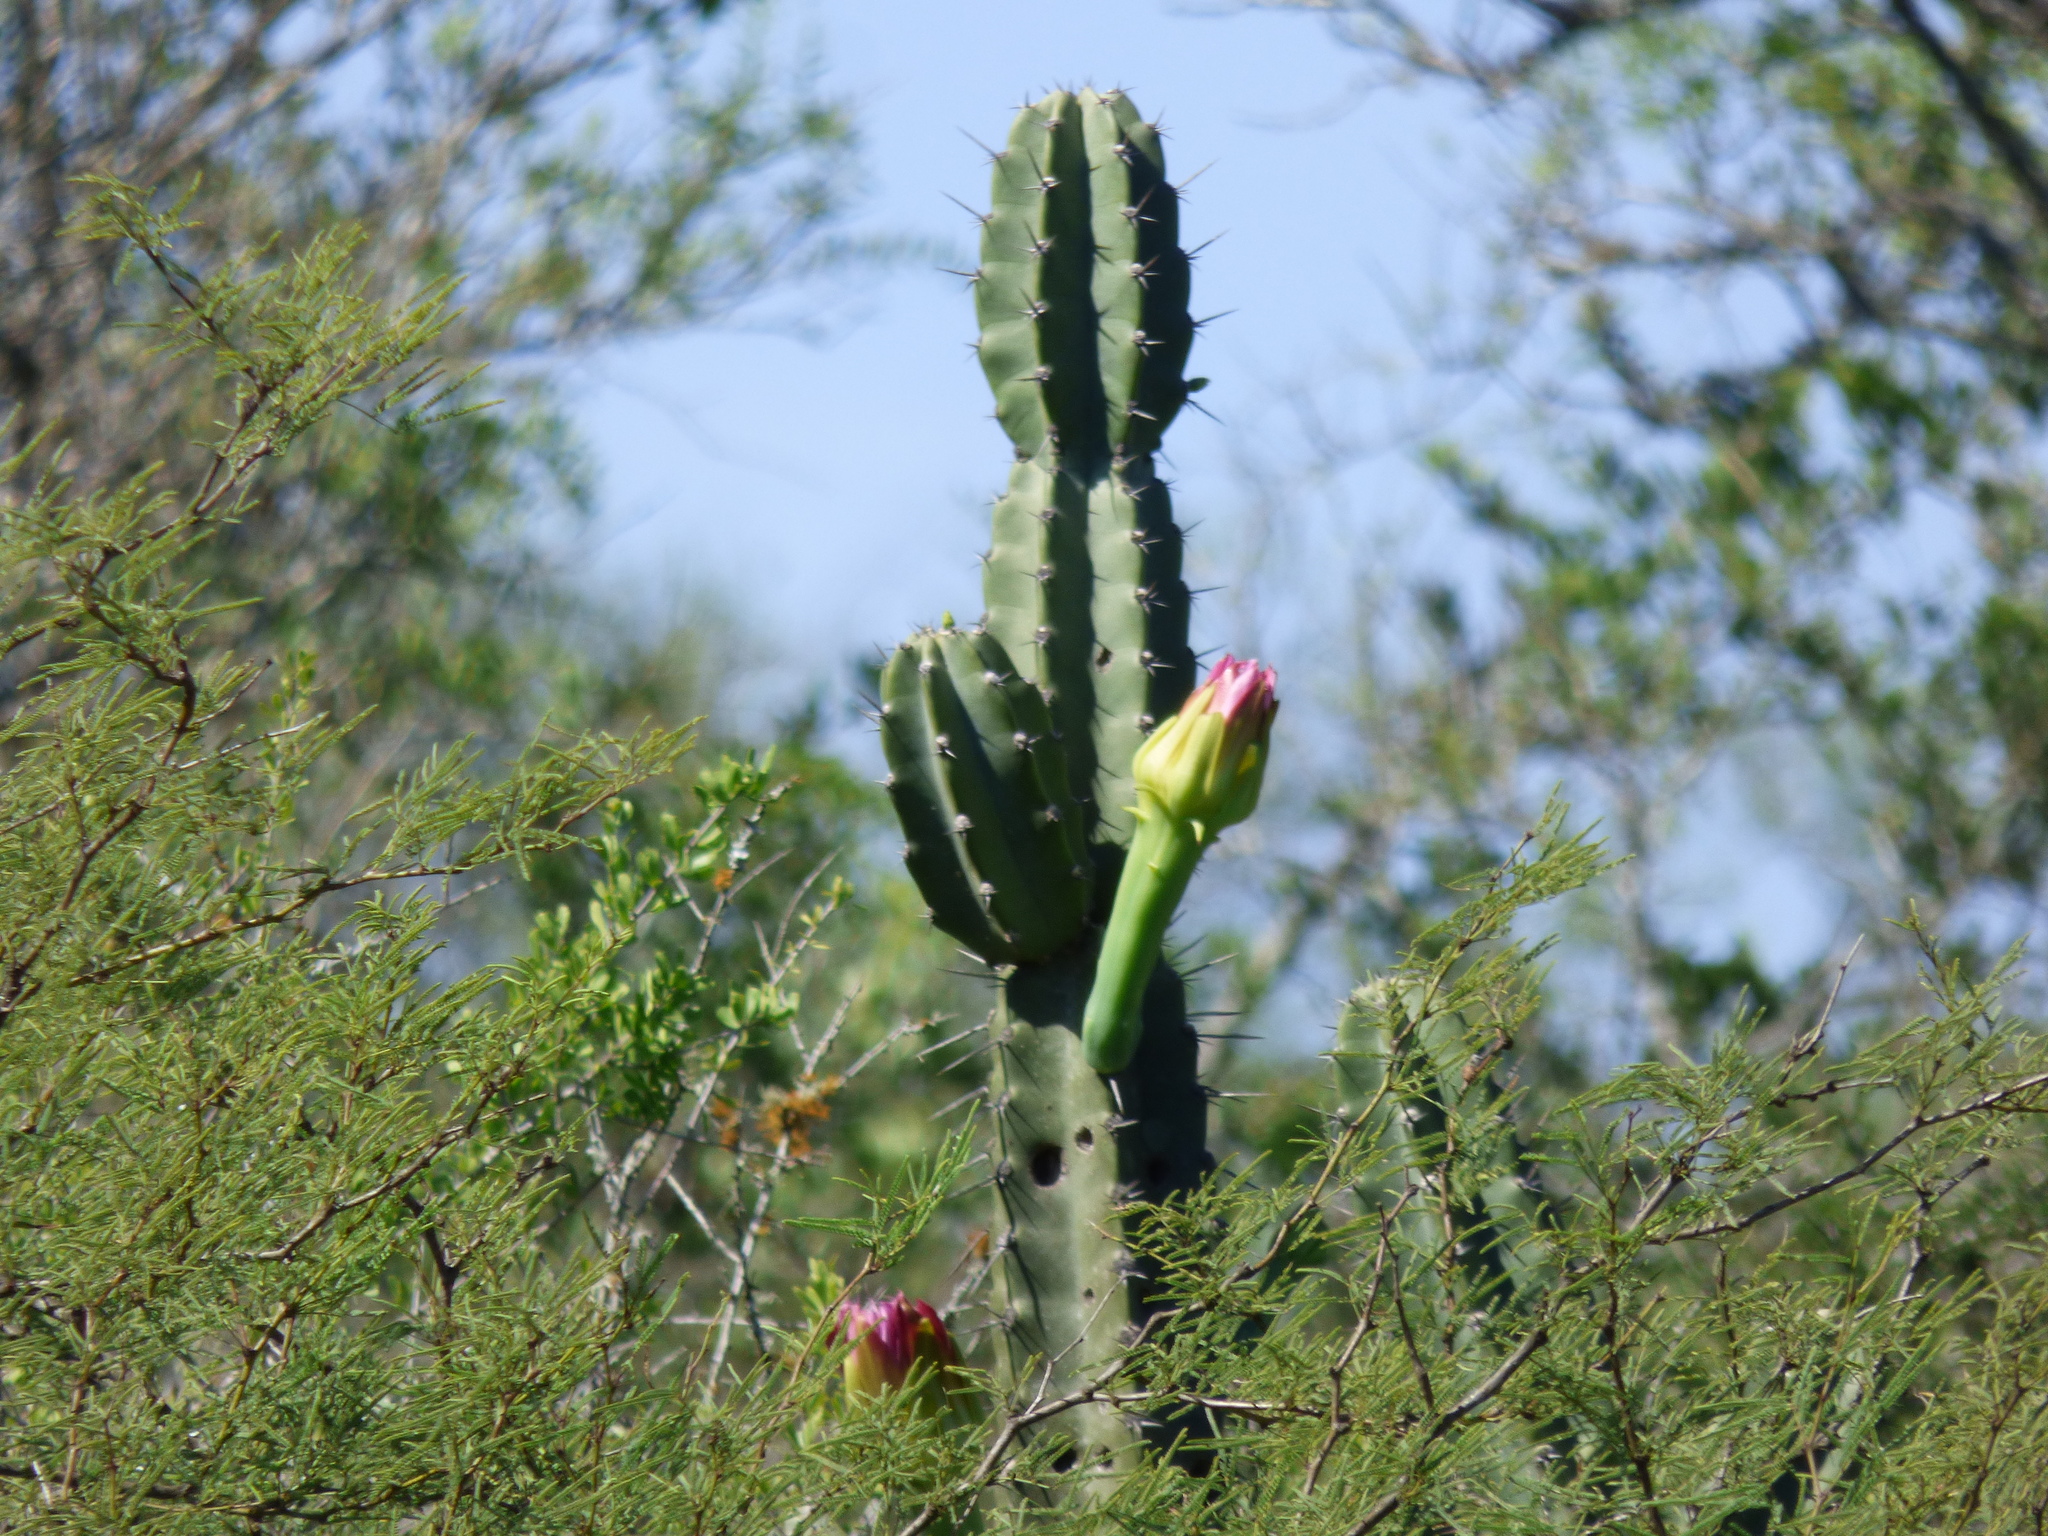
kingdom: Plantae
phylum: Tracheophyta
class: Magnoliopsida
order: Caryophyllales
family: Cactaceae
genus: Cereus
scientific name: Cereus stenogonus
